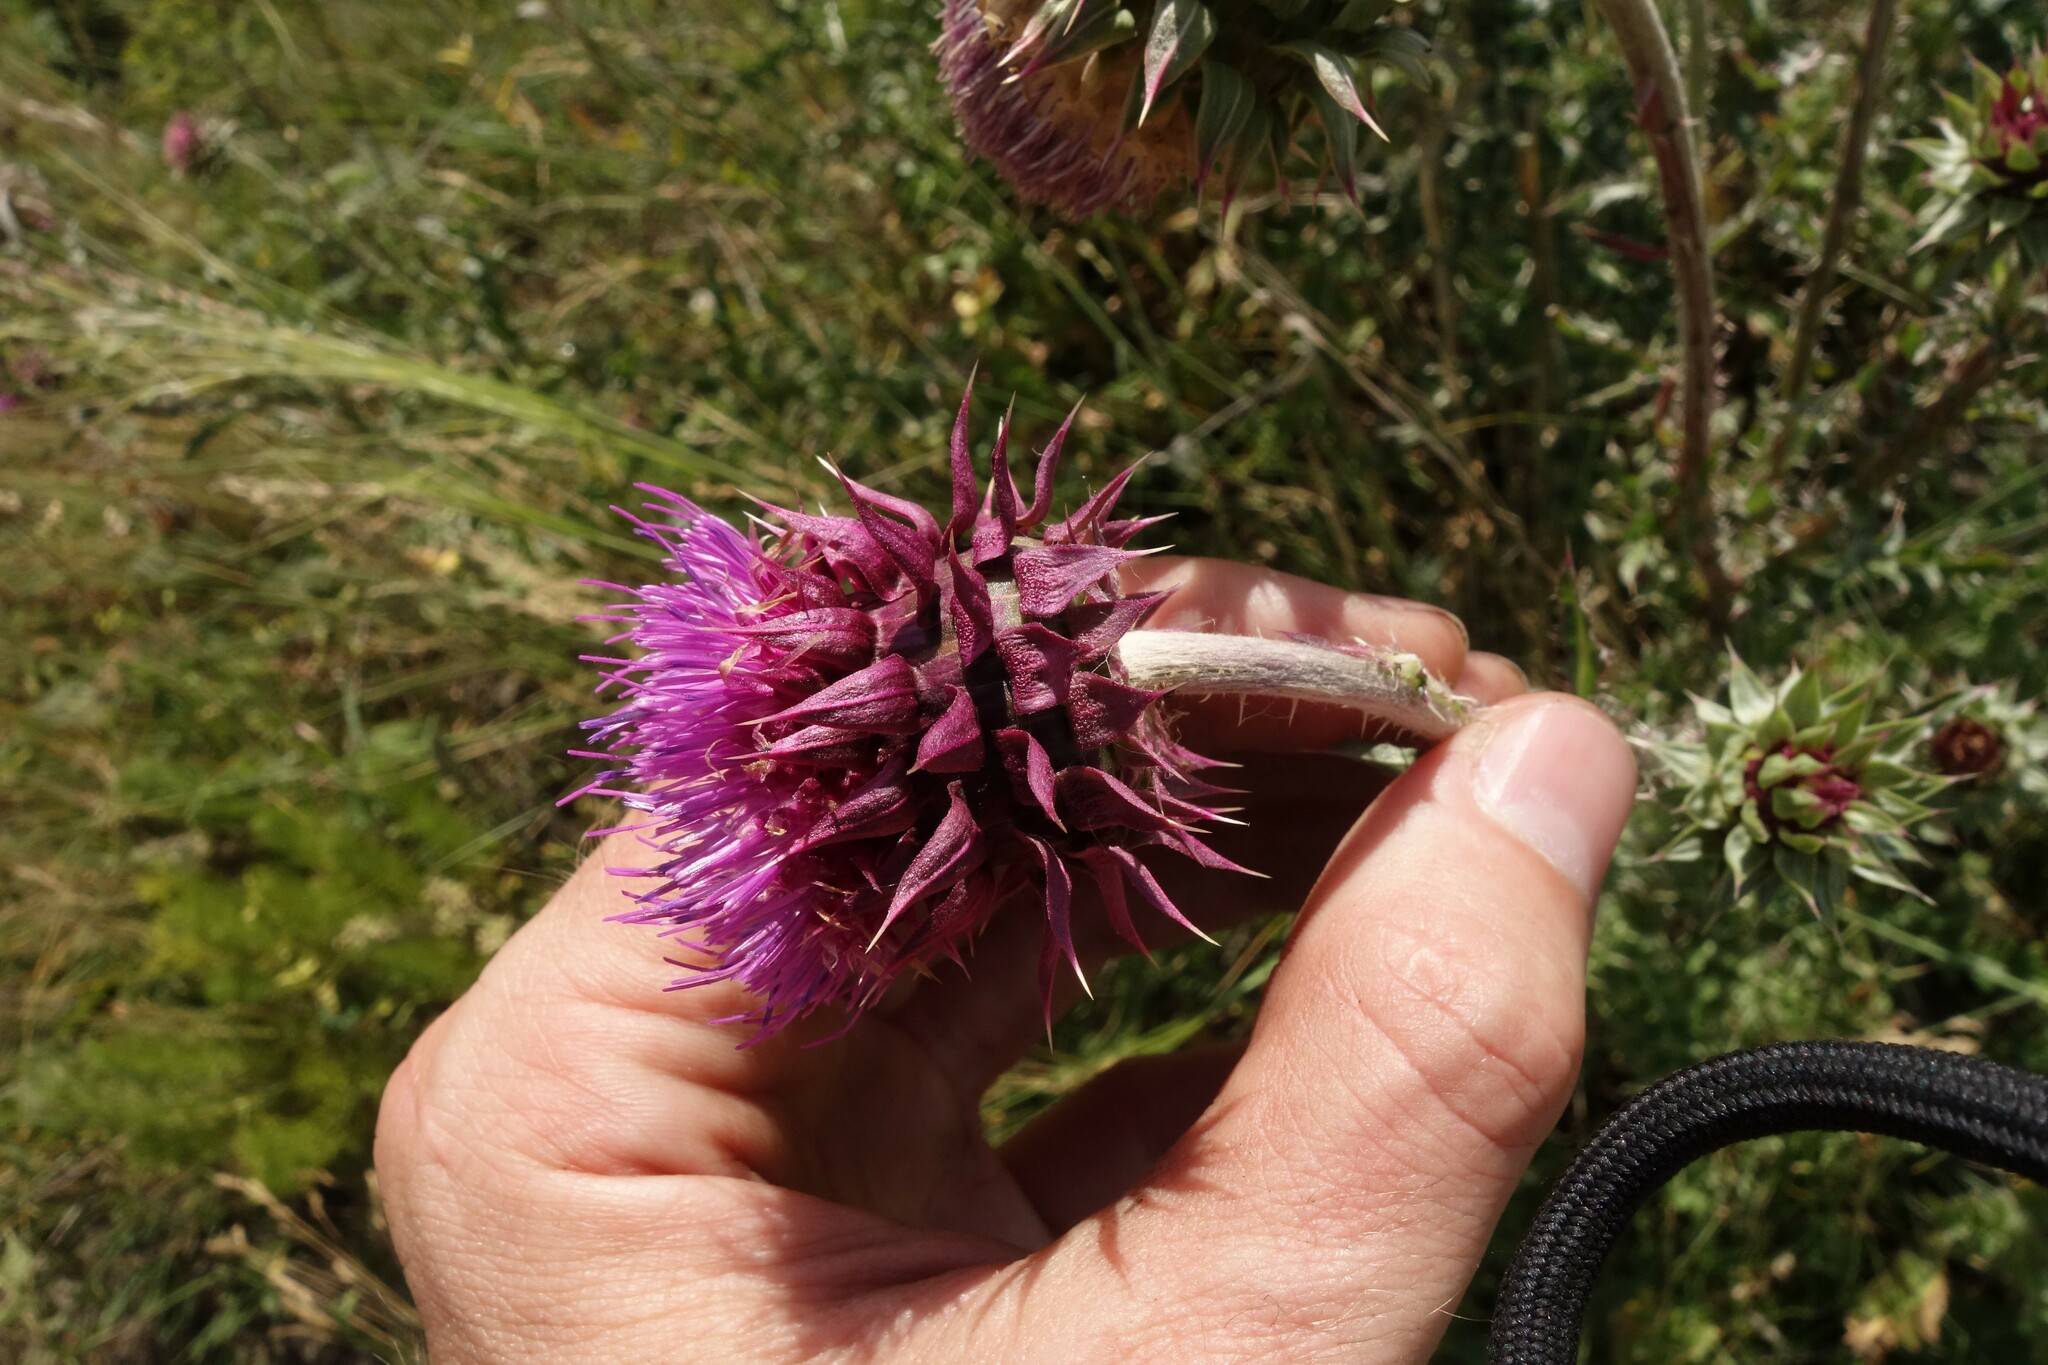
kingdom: Plantae
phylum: Tracheophyta
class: Magnoliopsida
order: Asterales
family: Asteraceae
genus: Carduus
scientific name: Carduus nutans
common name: Musk thistle
